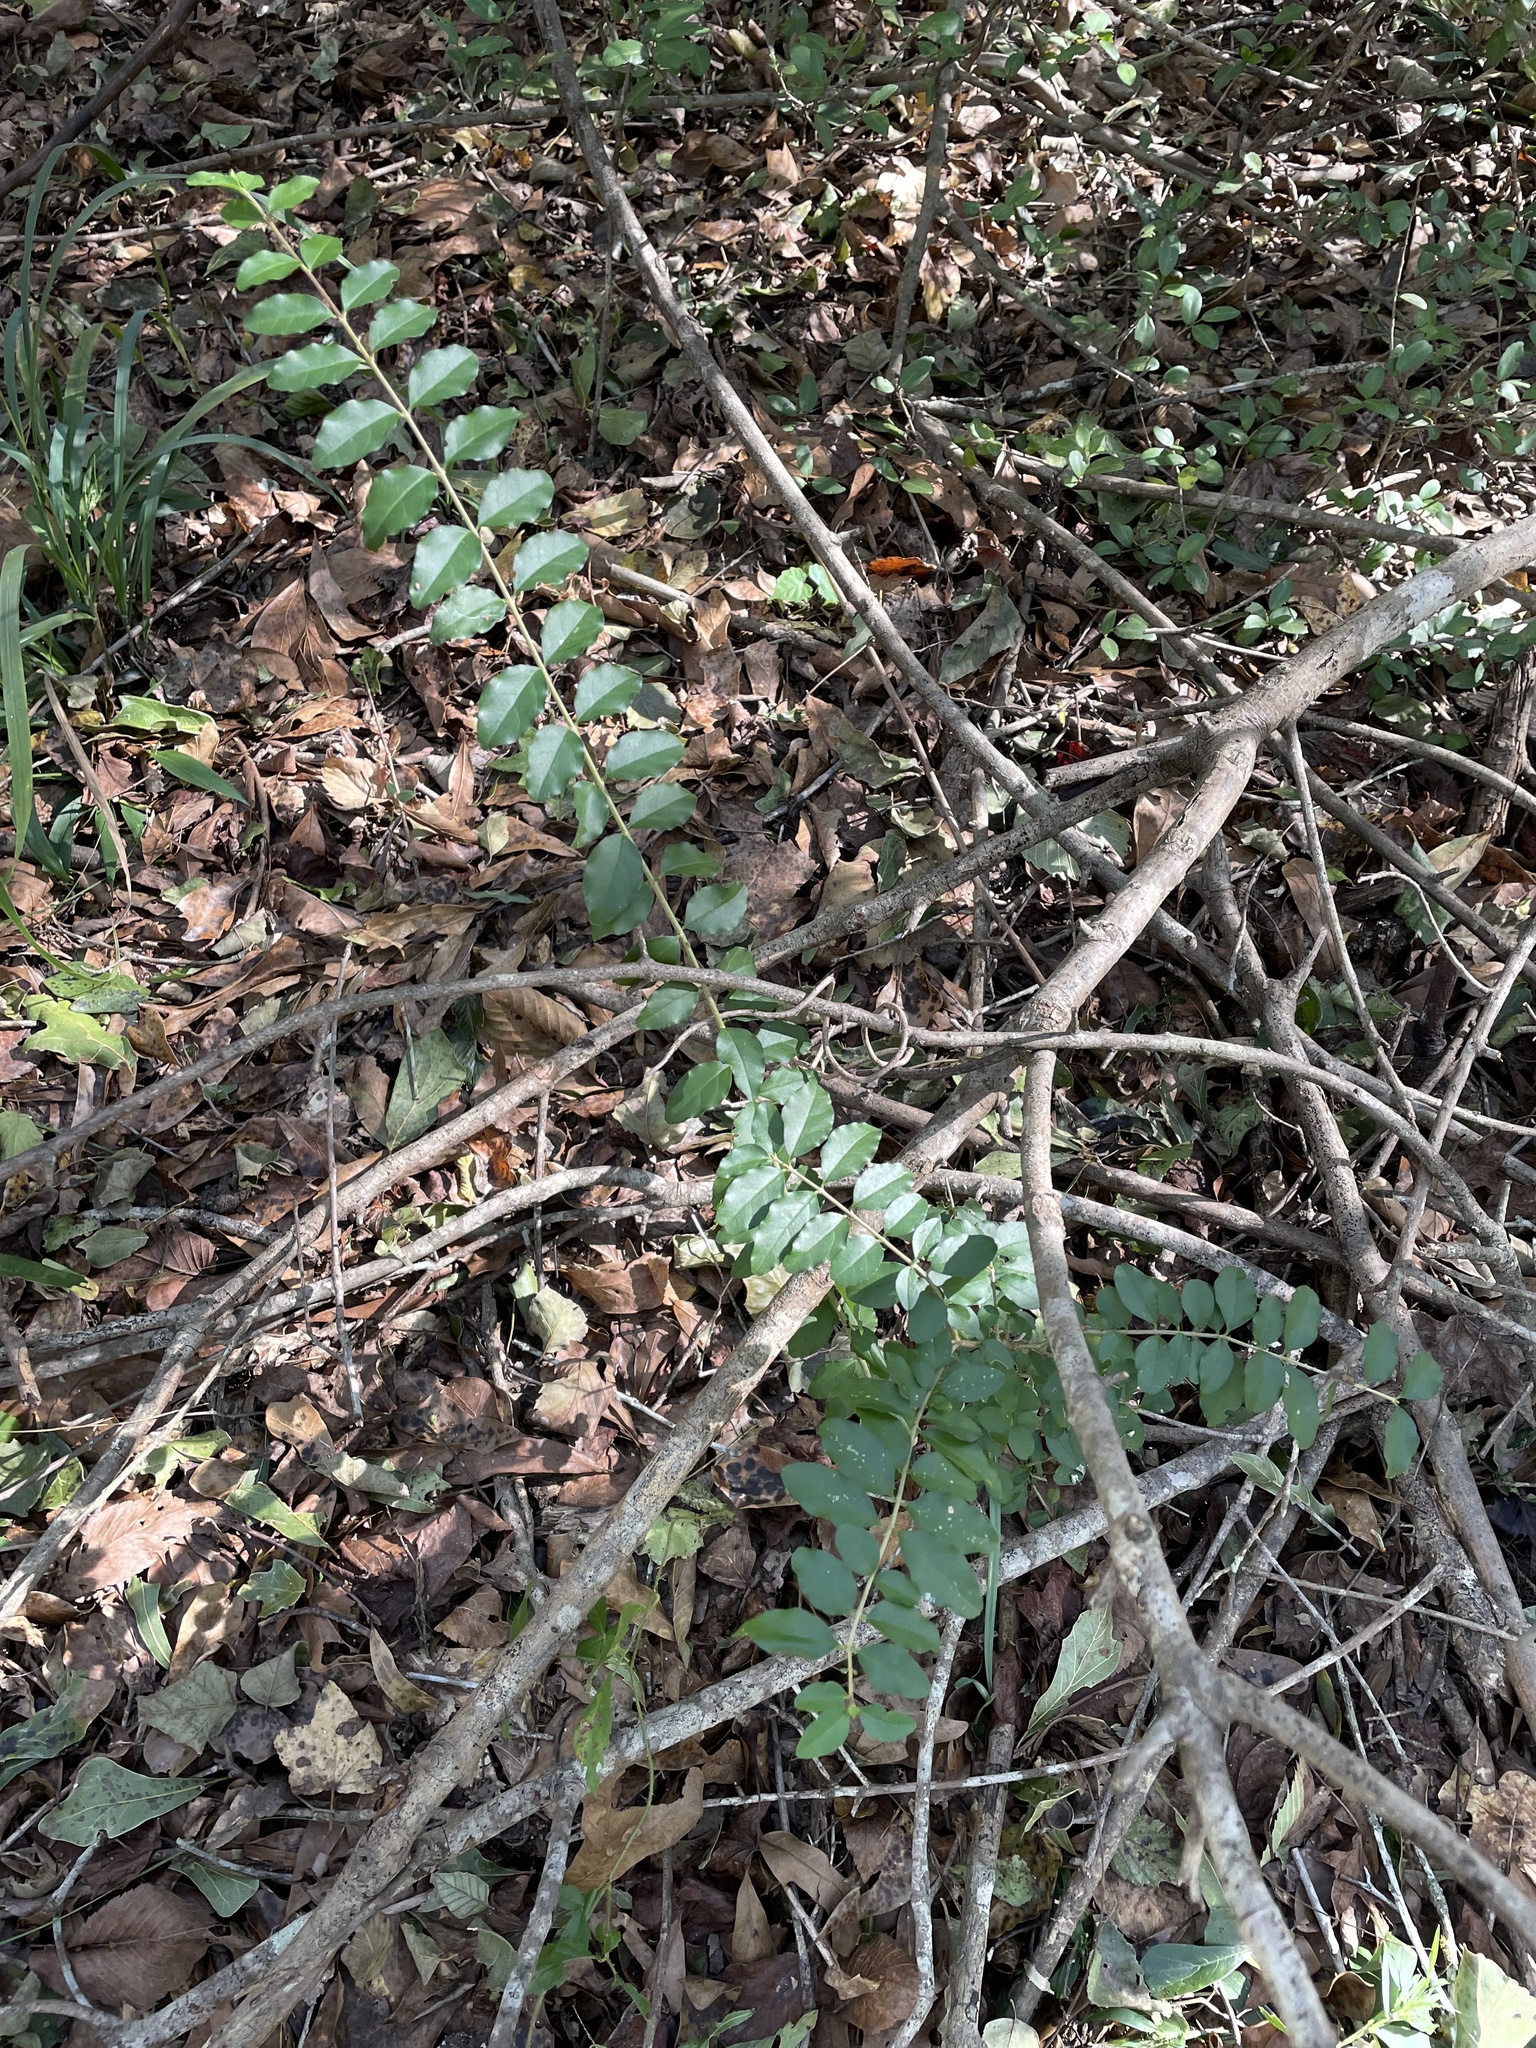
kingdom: Plantae
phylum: Tracheophyta
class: Magnoliopsida
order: Lamiales
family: Oleaceae
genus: Ligustrum
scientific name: Ligustrum sinense
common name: Chinese privet
